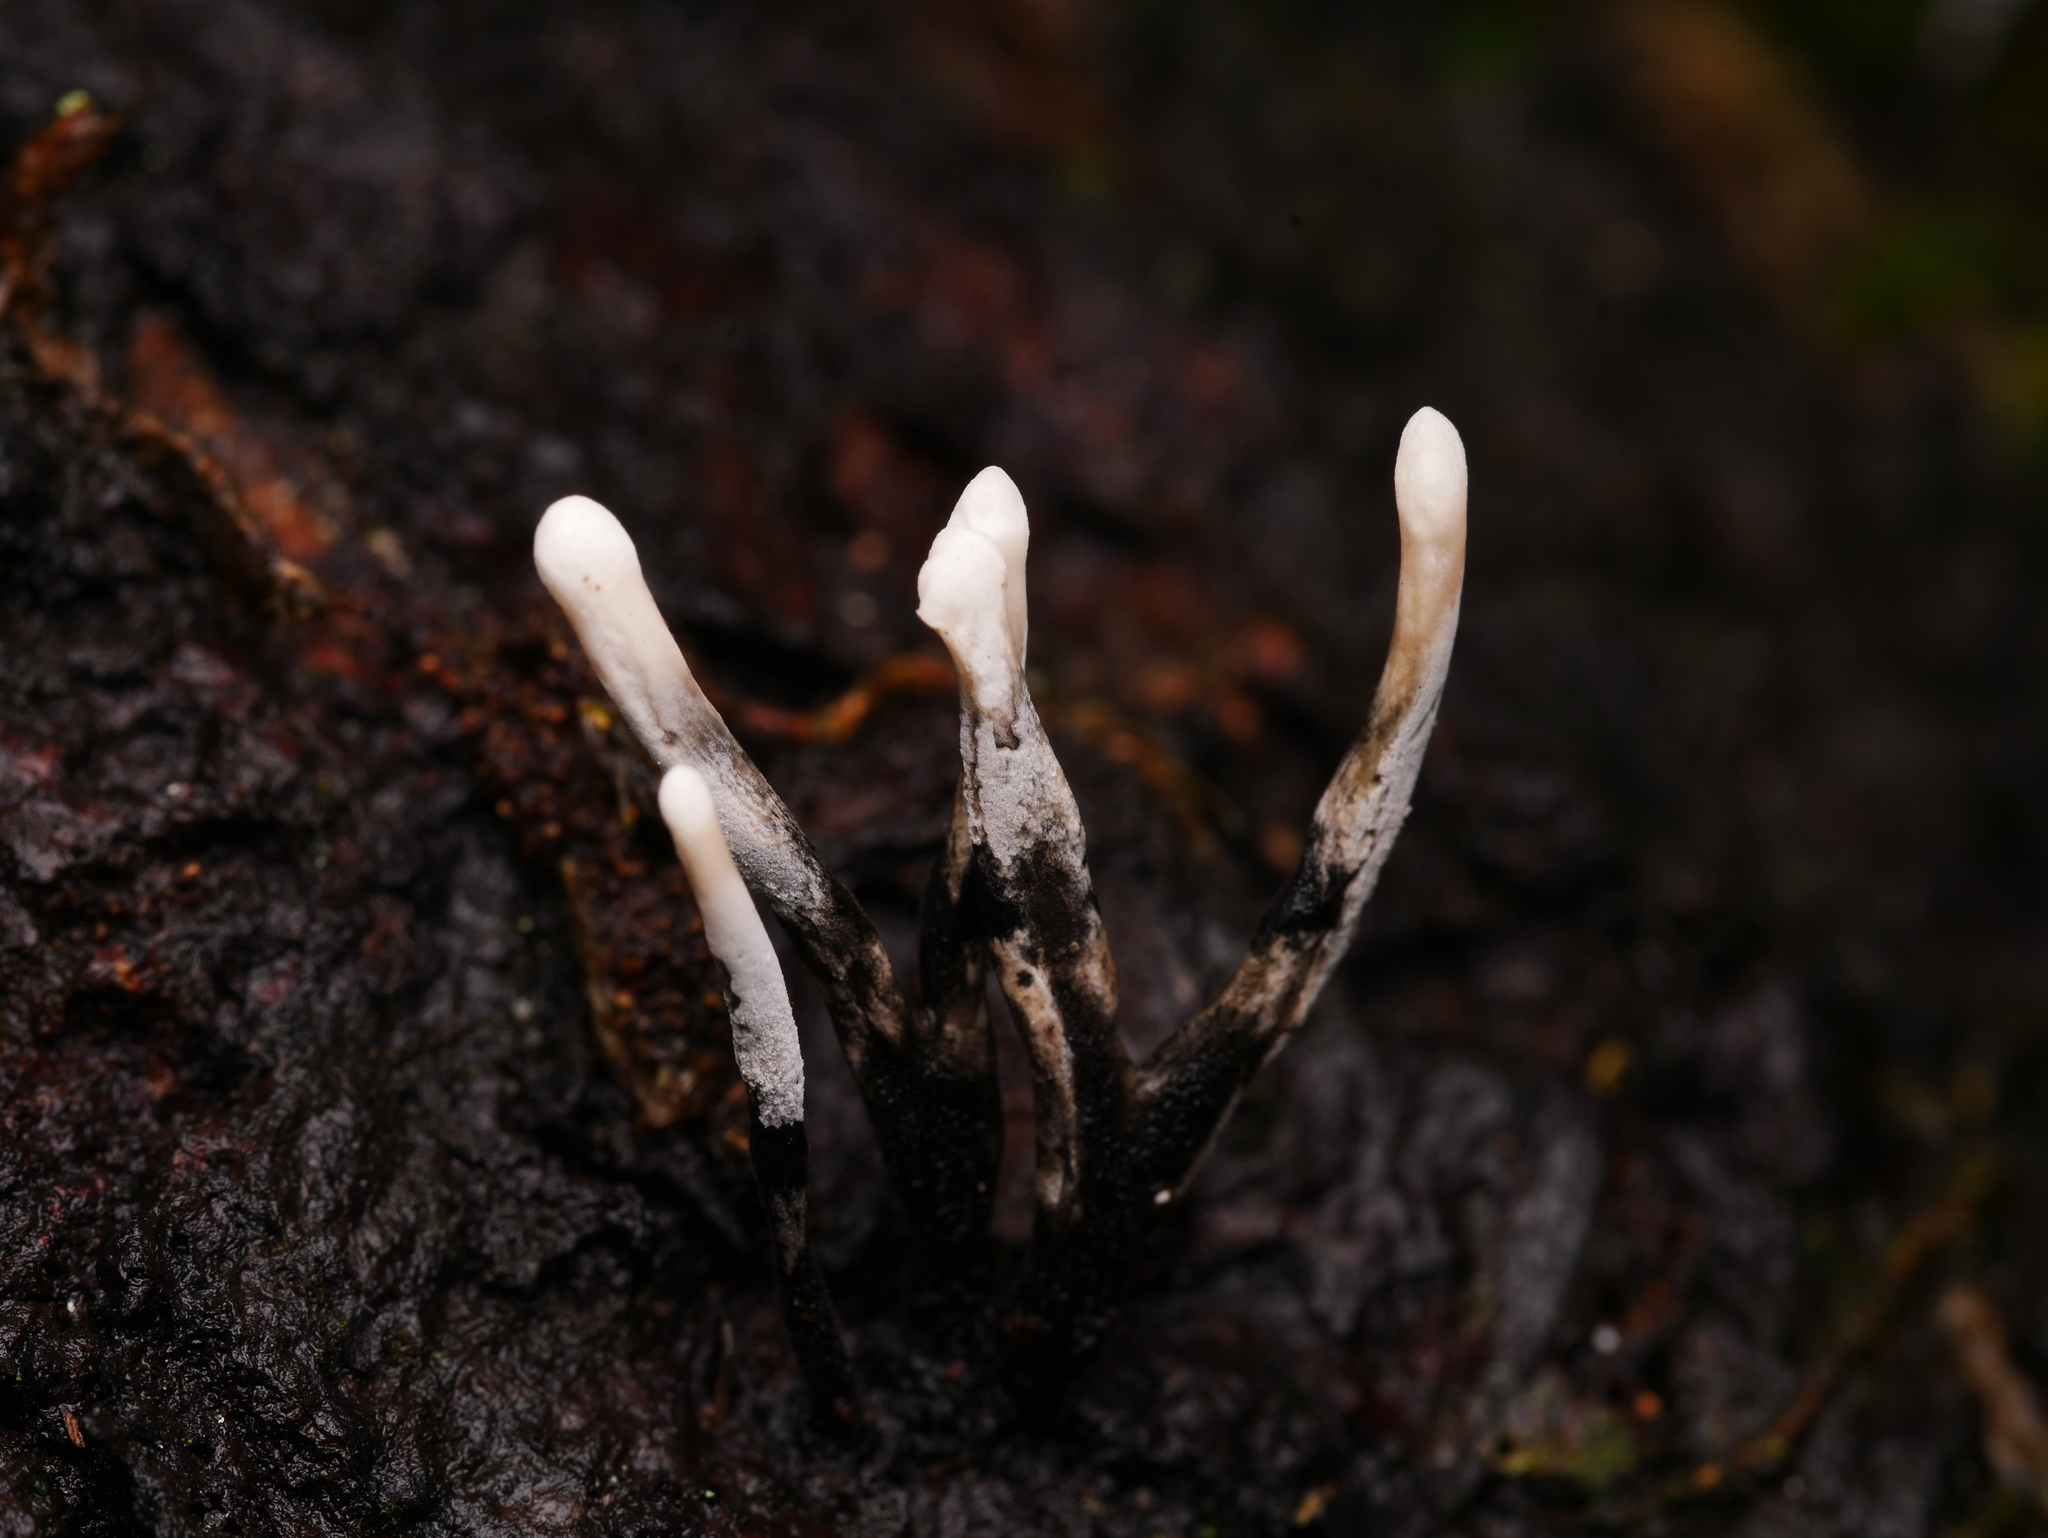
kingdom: Fungi
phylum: Ascomycota
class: Sordariomycetes
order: Xylariales
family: Xylariaceae
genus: Xylaria
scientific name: Xylaria hypoxylon
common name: Candle-snuff fungus
